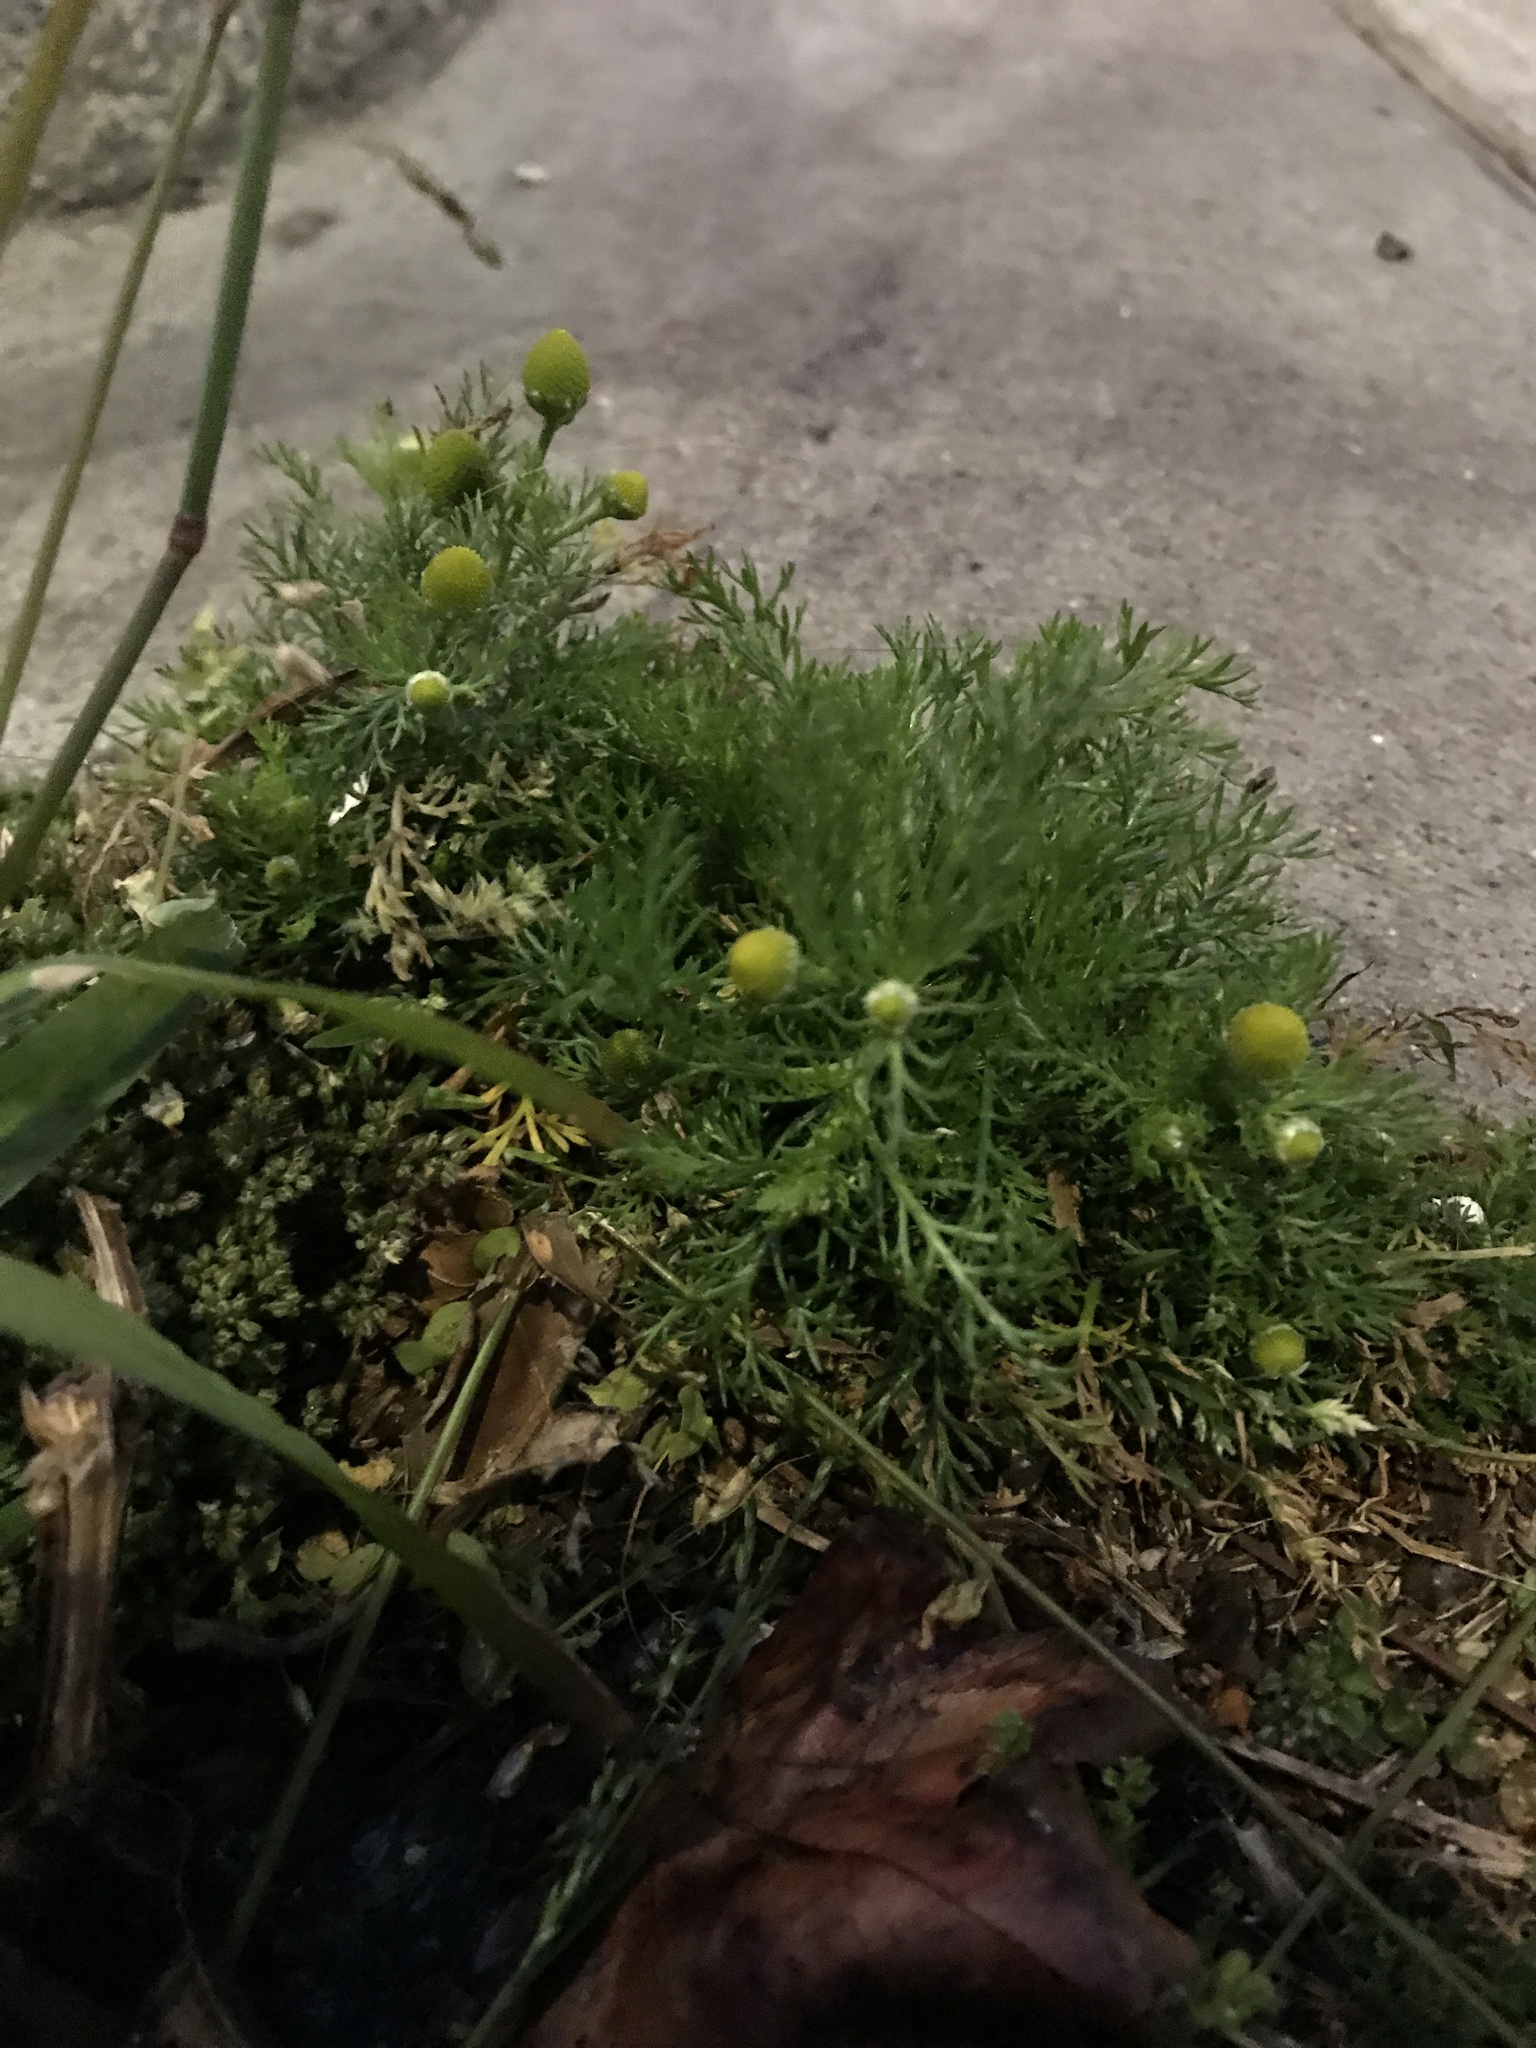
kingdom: Plantae
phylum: Tracheophyta
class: Magnoliopsida
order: Asterales
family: Asteraceae
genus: Matricaria
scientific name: Matricaria discoidea
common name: Disc mayweed
